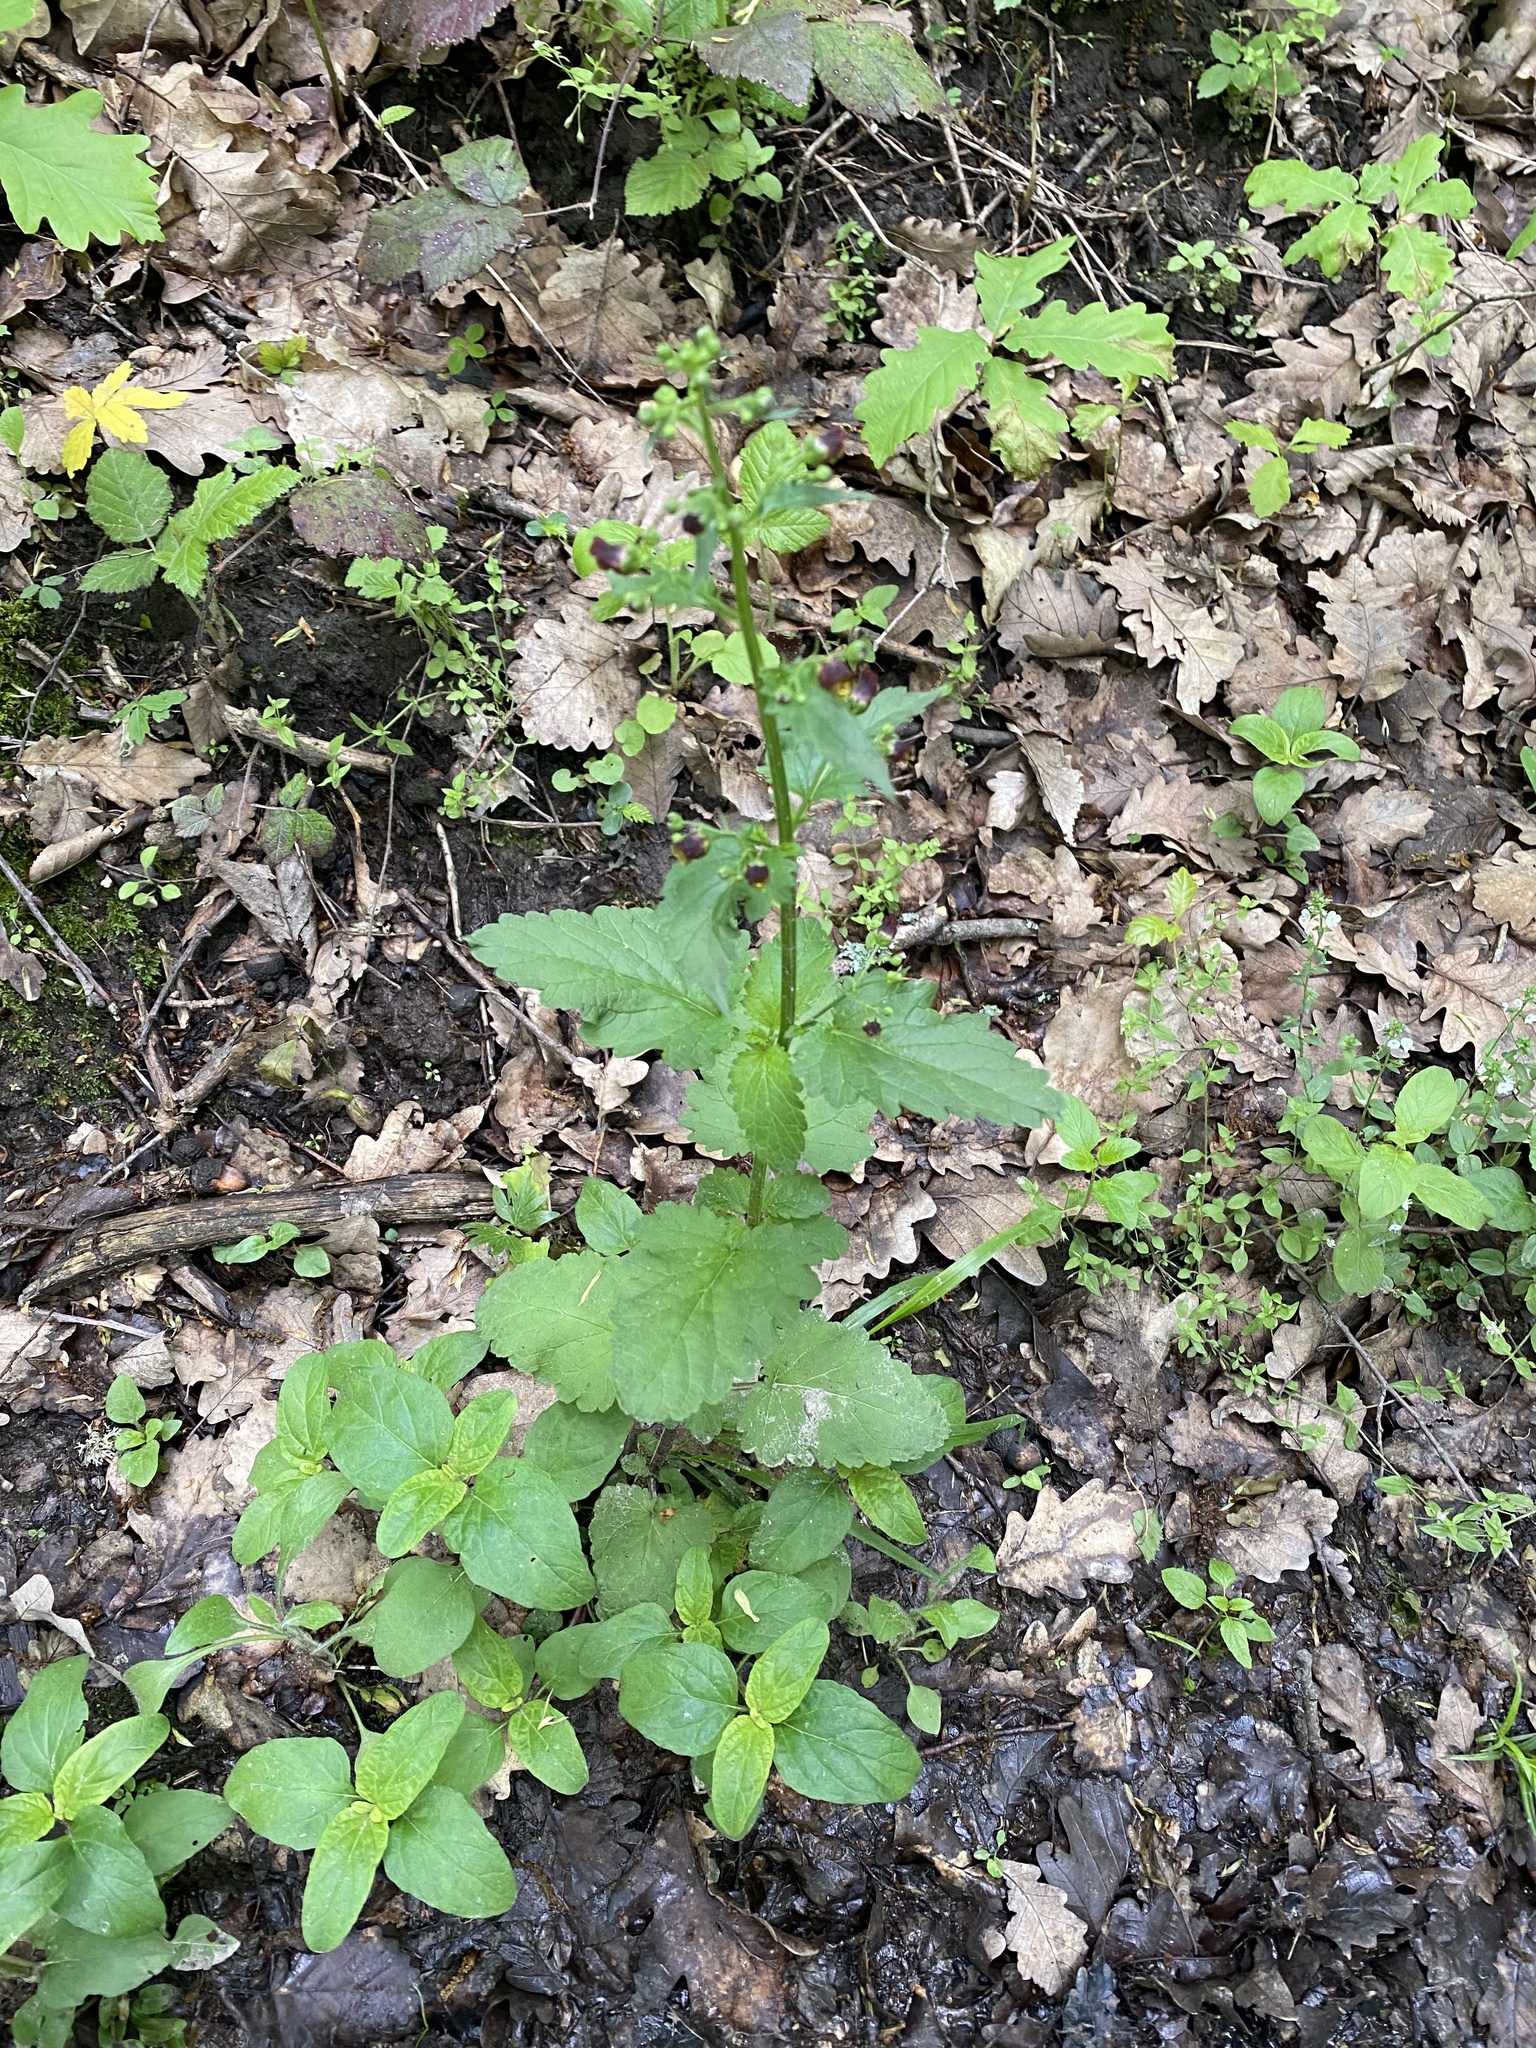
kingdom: Plantae
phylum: Tracheophyta
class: Magnoliopsida
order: Lamiales
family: Scrophulariaceae
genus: Scrophularia
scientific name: Scrophularia nodosa
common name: Common figwort
